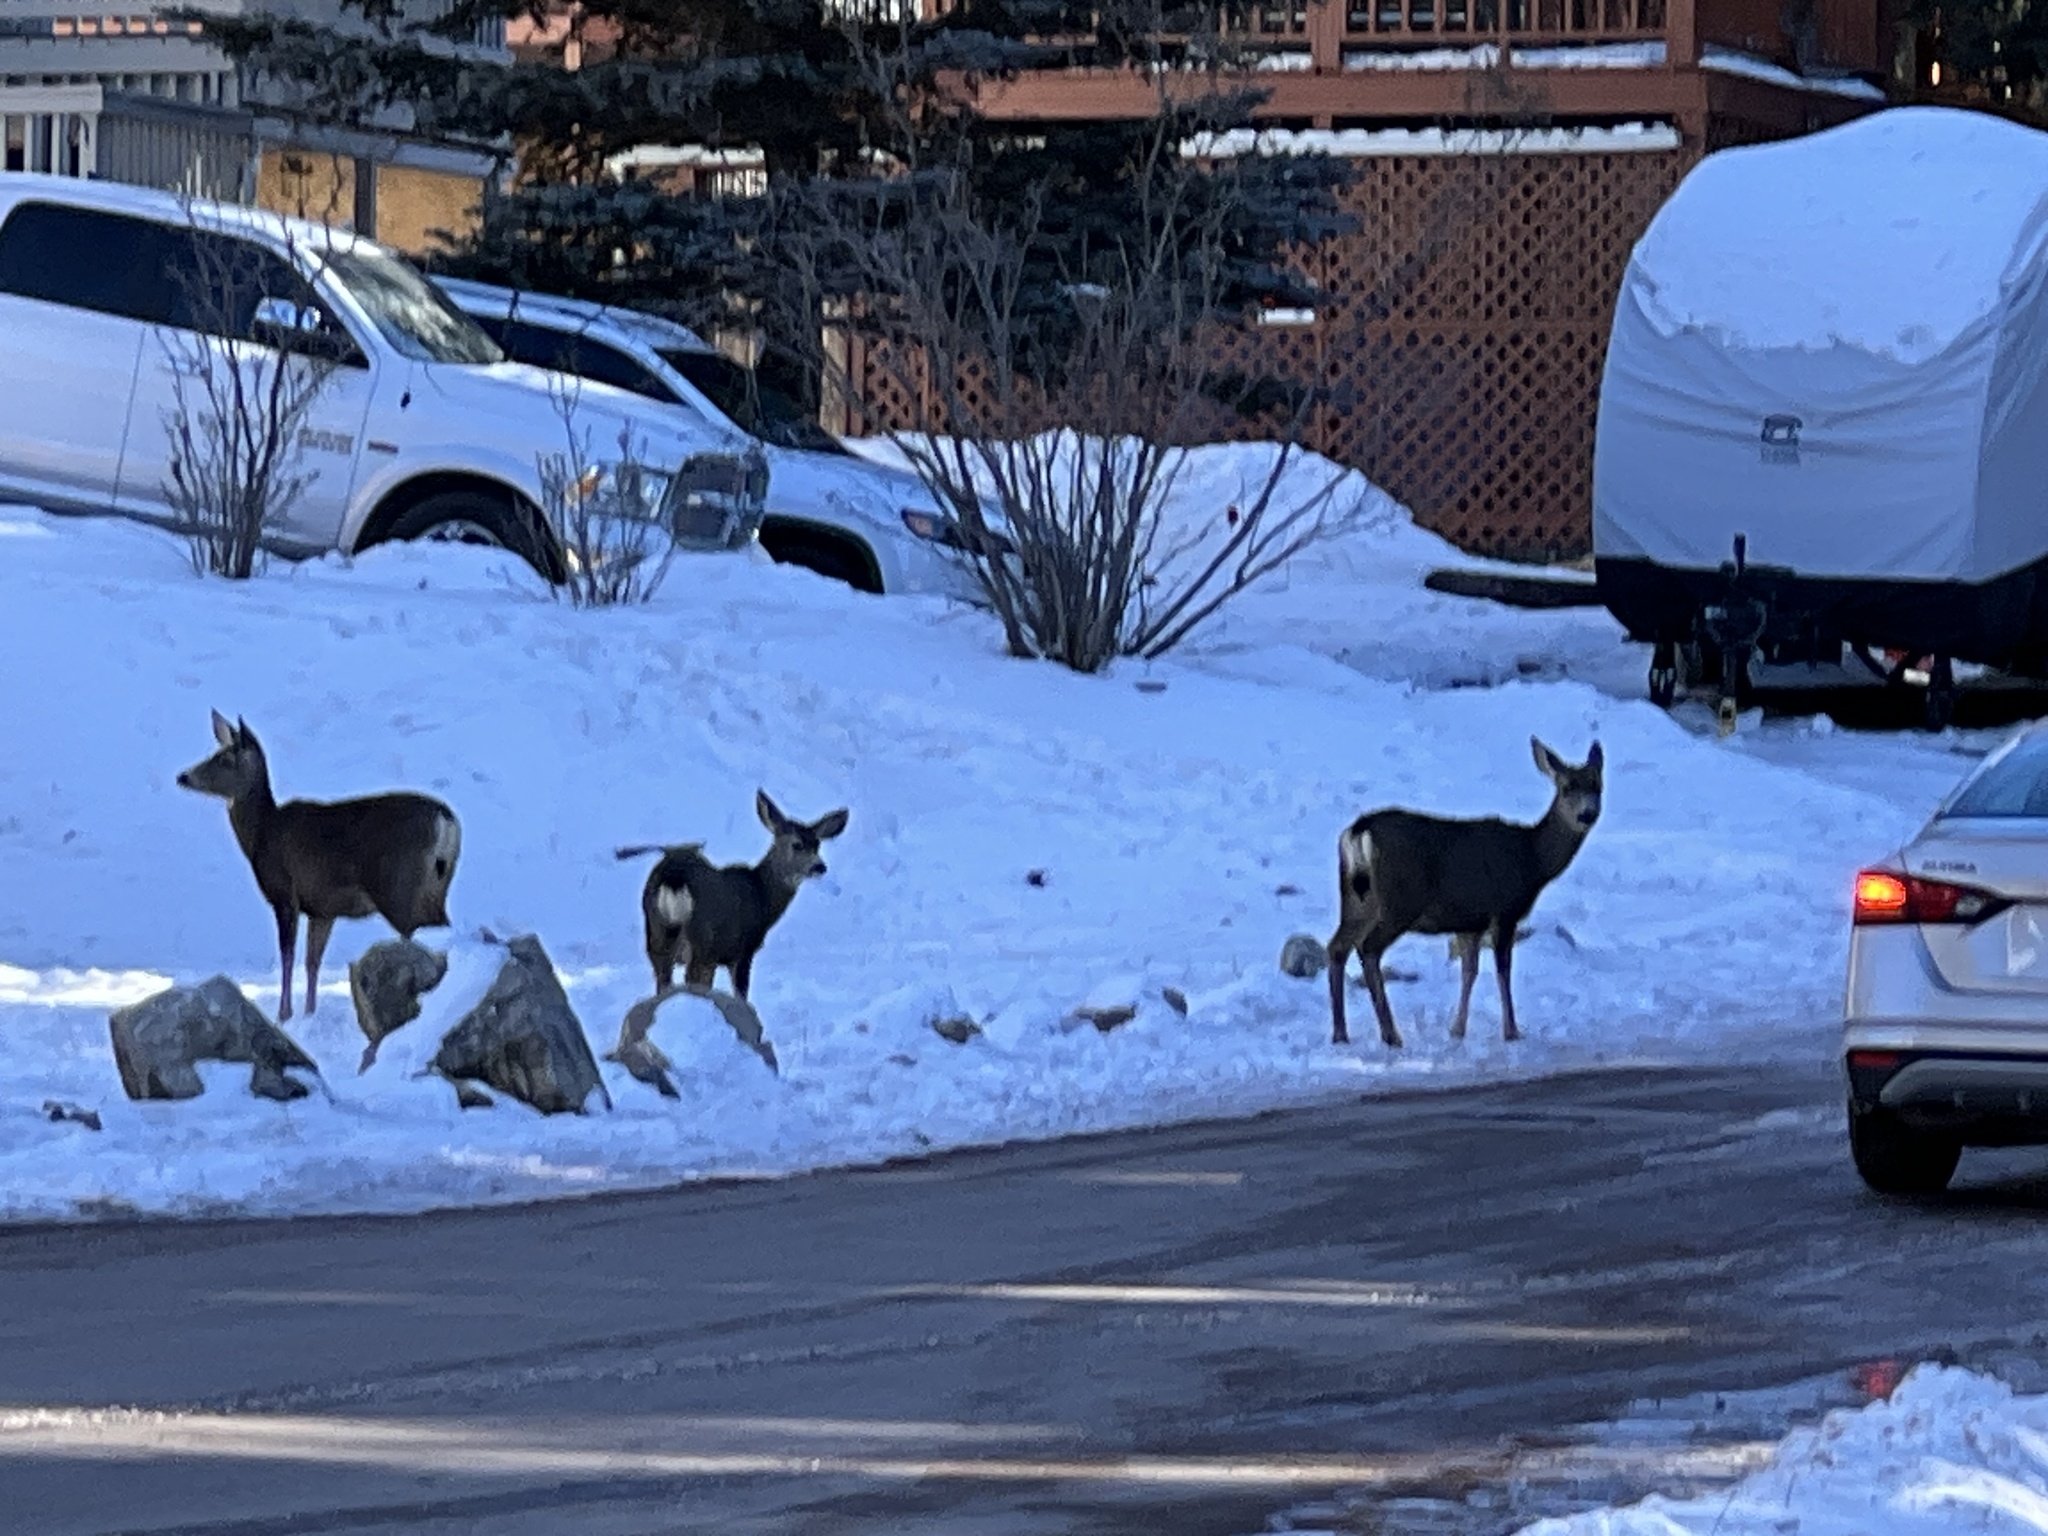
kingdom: Animalia
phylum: Chordata
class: Mammalia
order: Artiodactyla
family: Cervidae
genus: Odocoileus
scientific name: Odocoileus hemionus
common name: Mule deer
